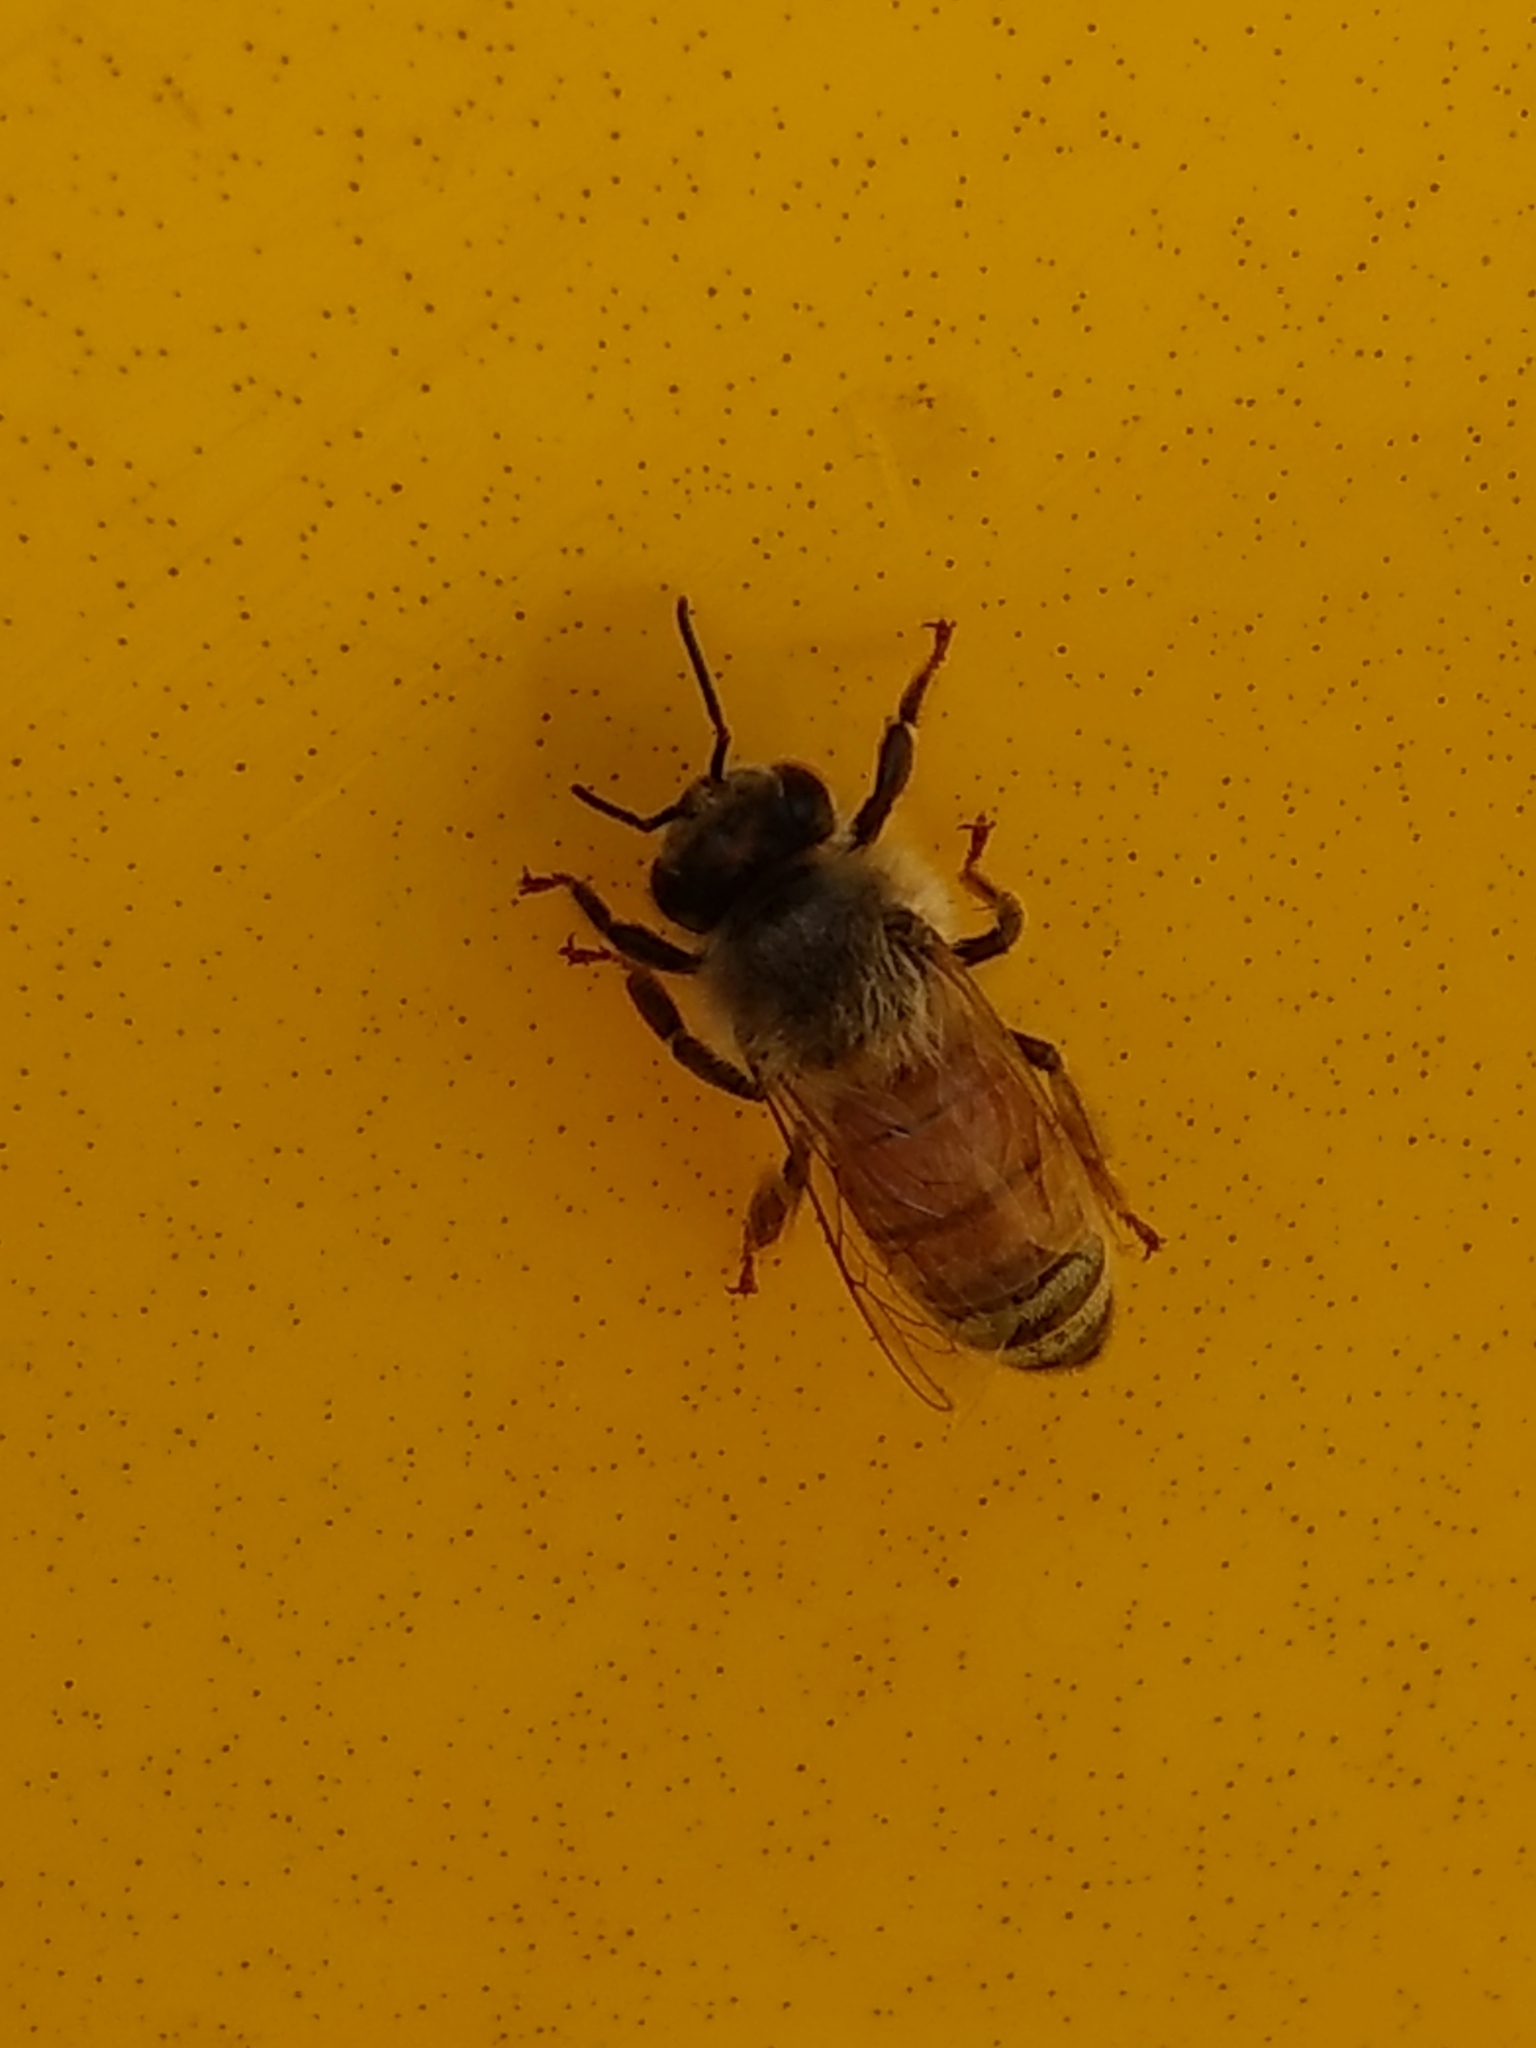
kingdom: Animalia
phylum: Arthropoda
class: Insecta
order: Hymenoptera
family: Apidae
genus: Apis
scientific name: Apis mellifera
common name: Honey bee
